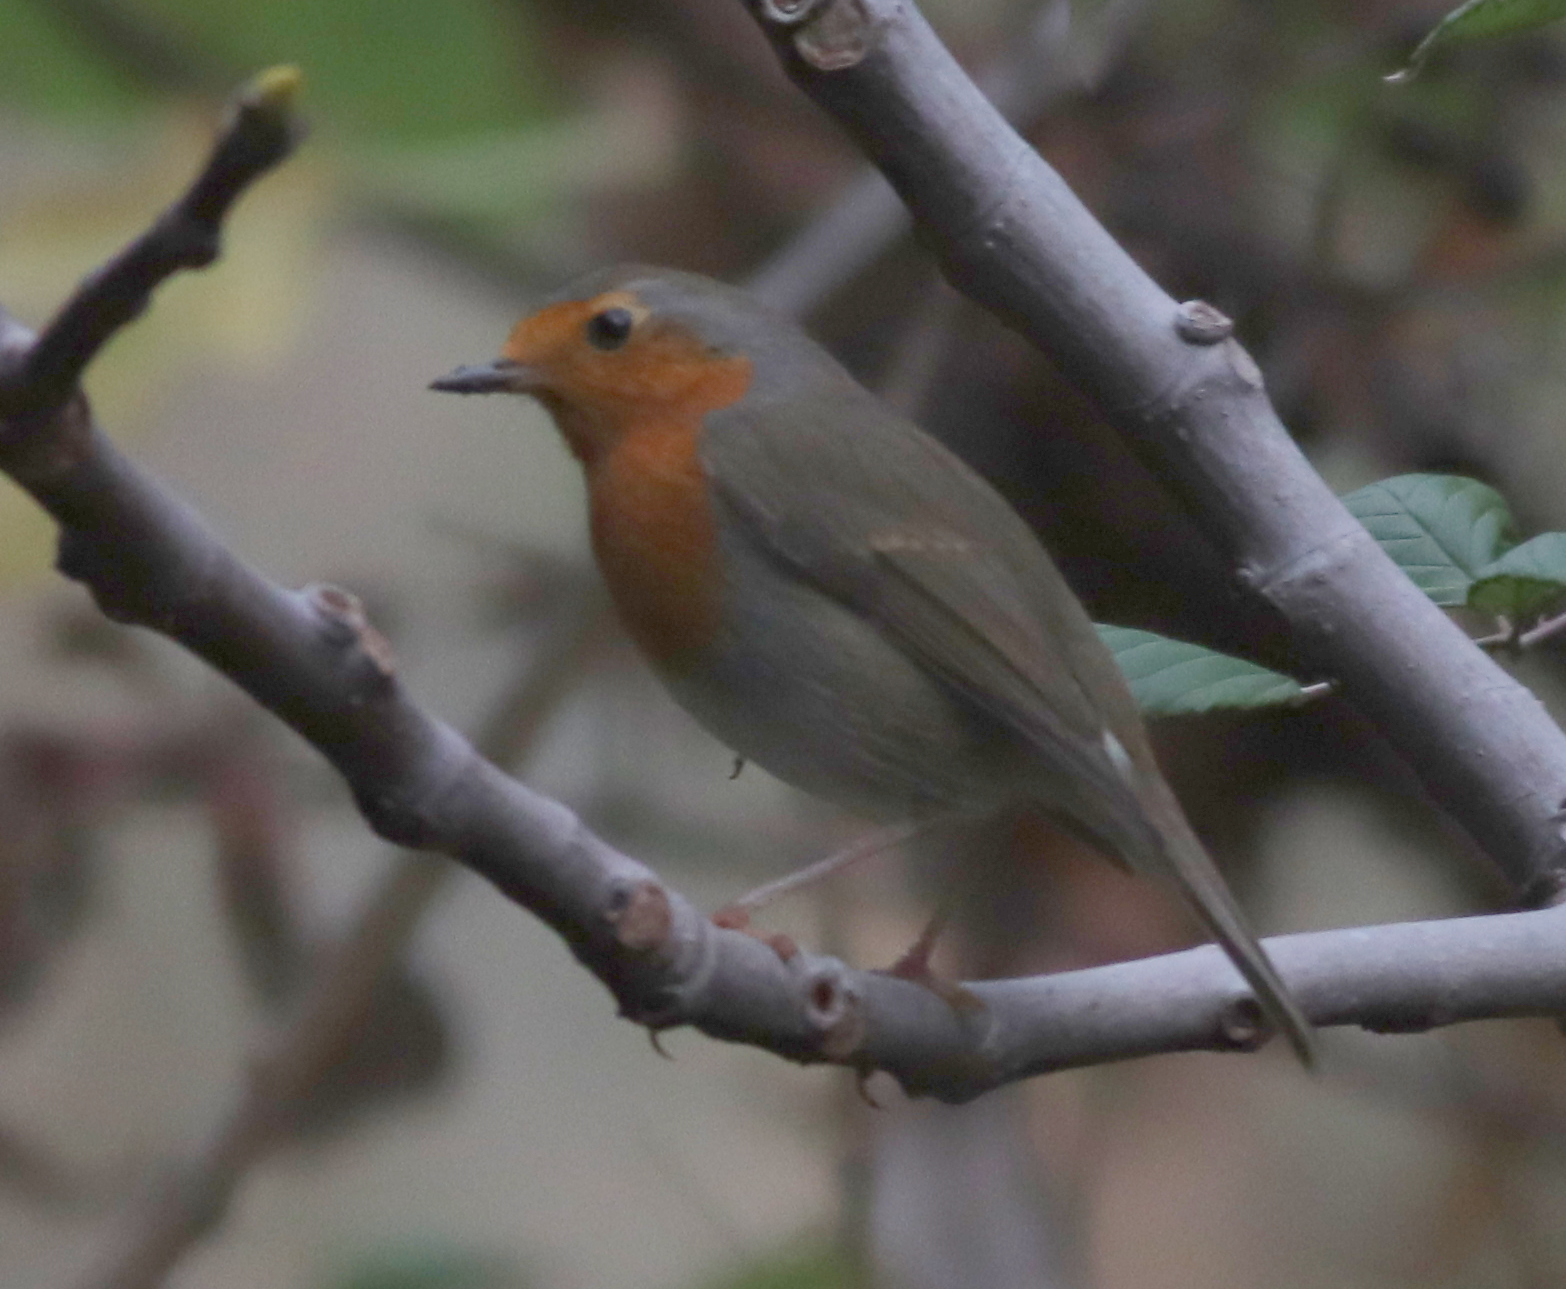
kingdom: Animalia
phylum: Chordata
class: Aves
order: Passeriformes
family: Muscicapidae
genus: Erithacus
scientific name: Erithacus rubecula
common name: European robin
